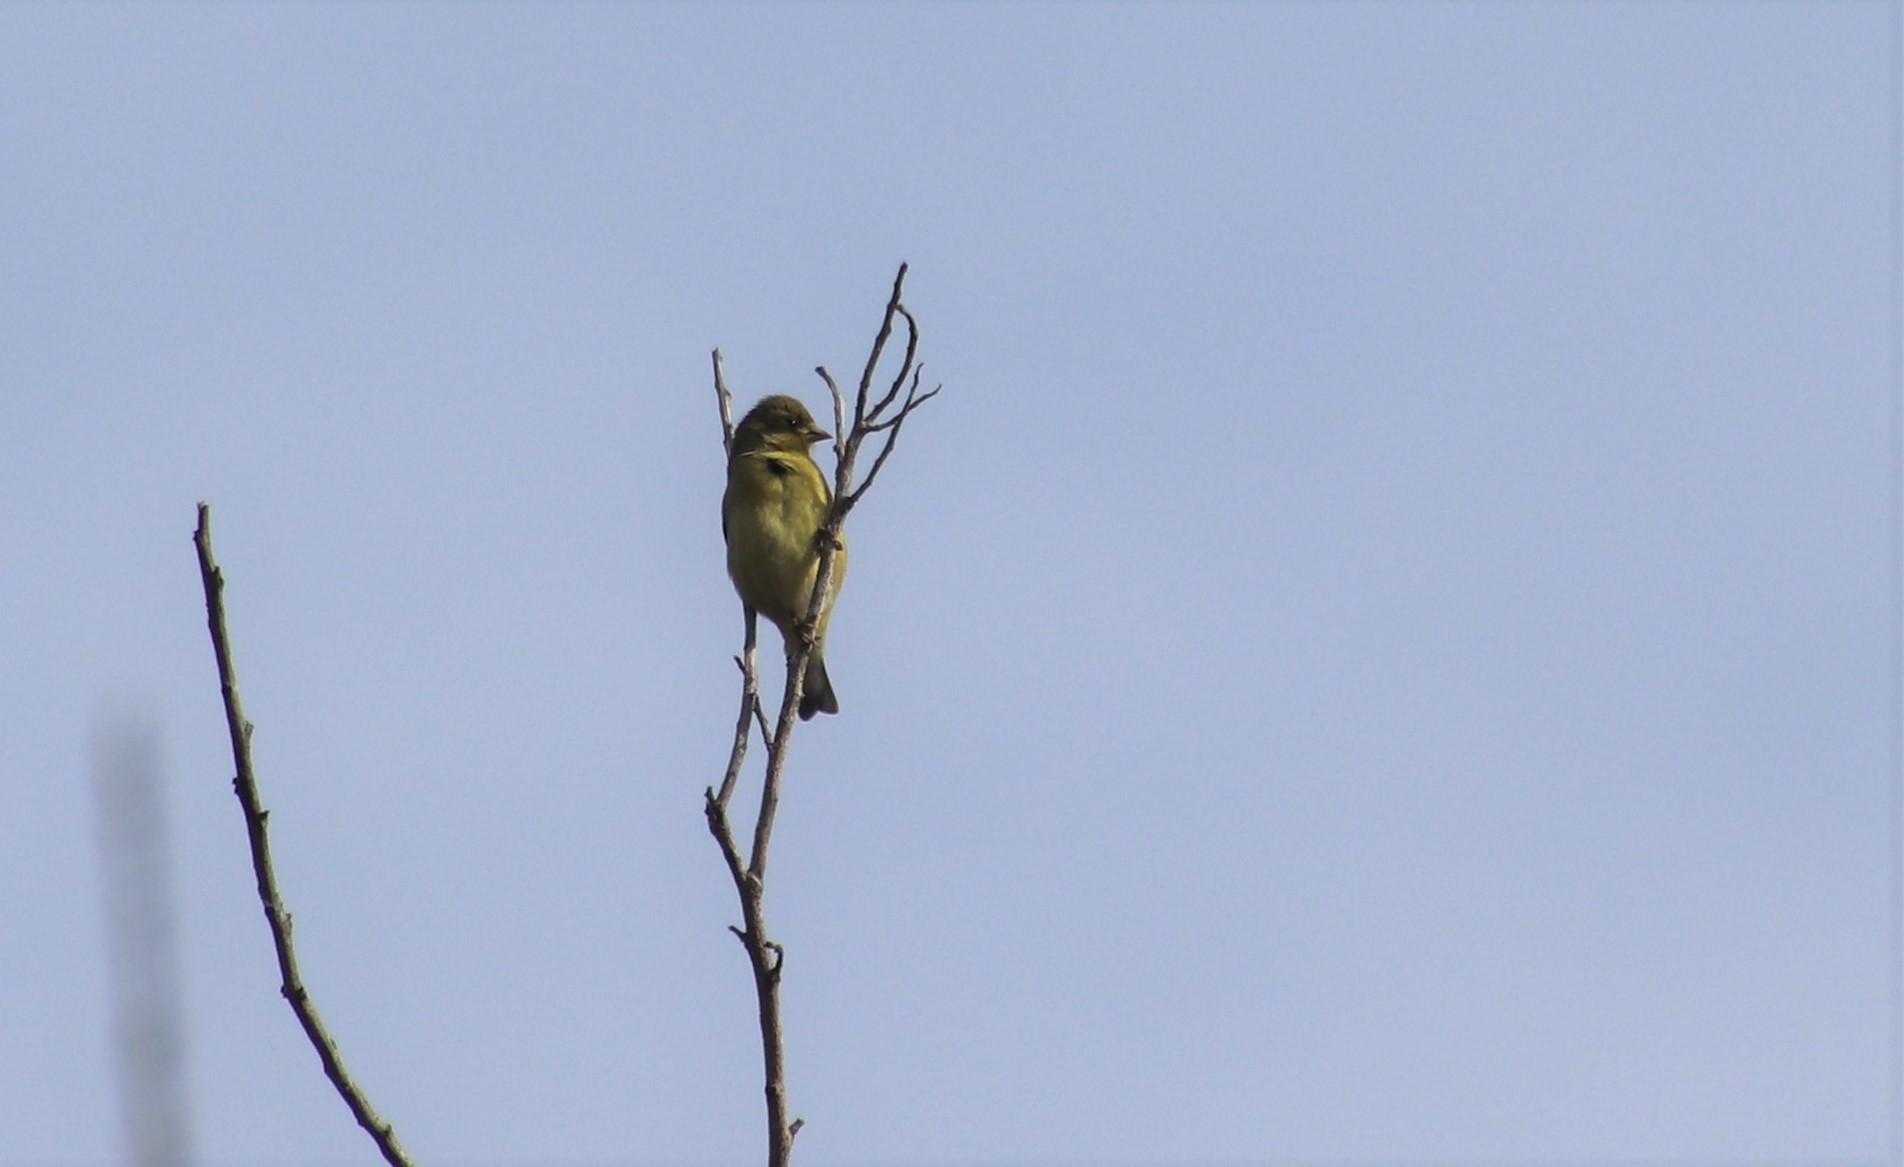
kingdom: Animalia
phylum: Chordata
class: Aves
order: Passeriformes
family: Fringillidae
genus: Spinus
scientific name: Spinus psaltria
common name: Lesser goldfinch
